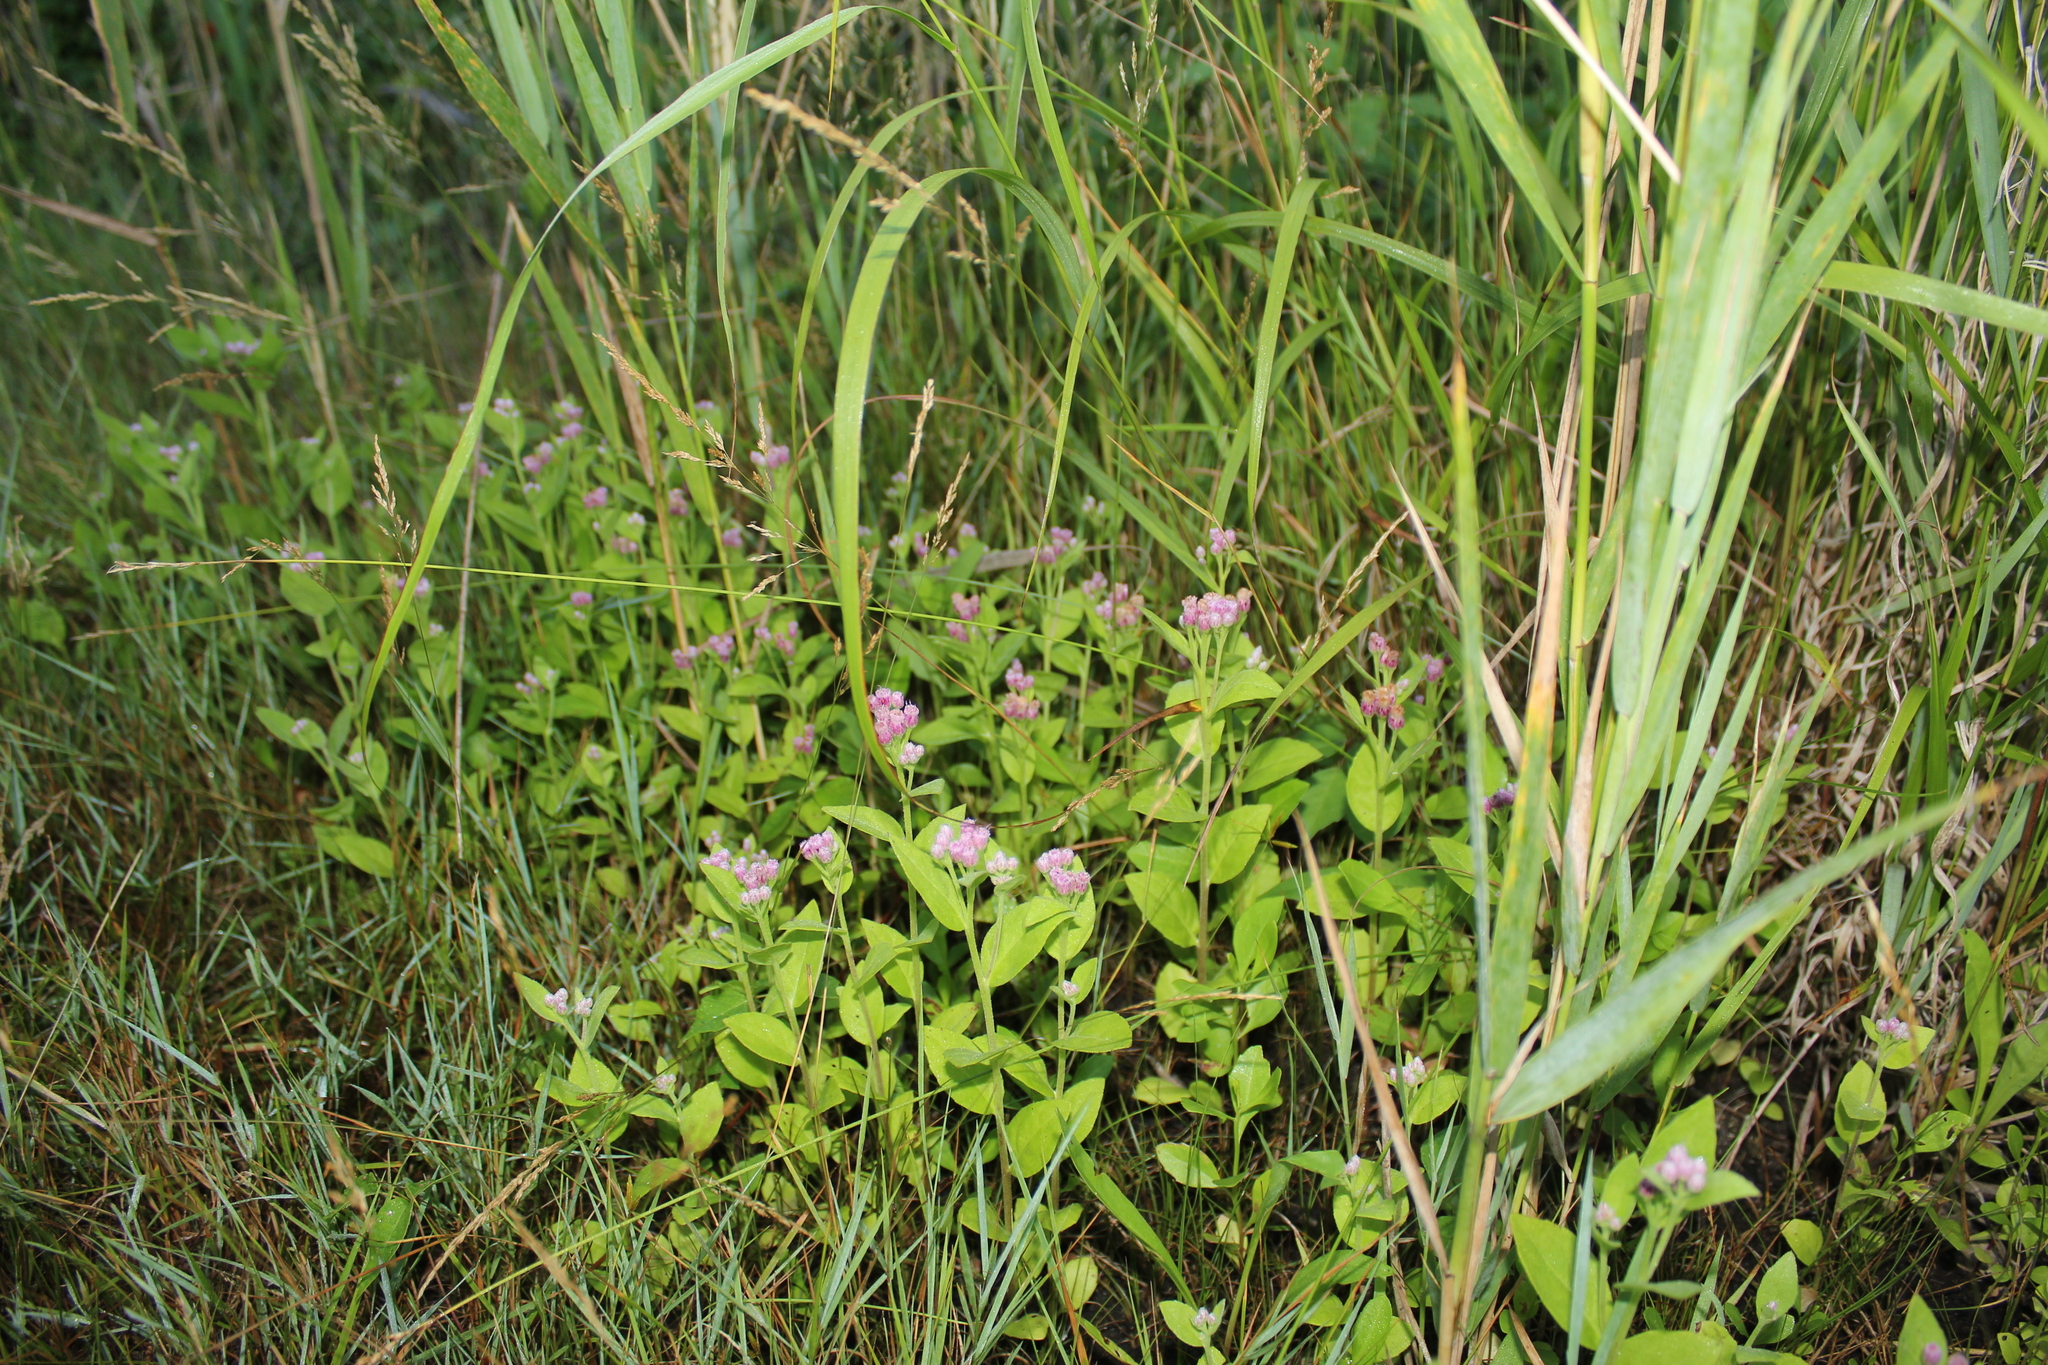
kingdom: Plantae
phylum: Tracheophyta
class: Magnoliopsida
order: Asterales
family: Asteraceae
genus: Pluchea
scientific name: Pluchea odorata
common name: Saltmarsh fleabane
